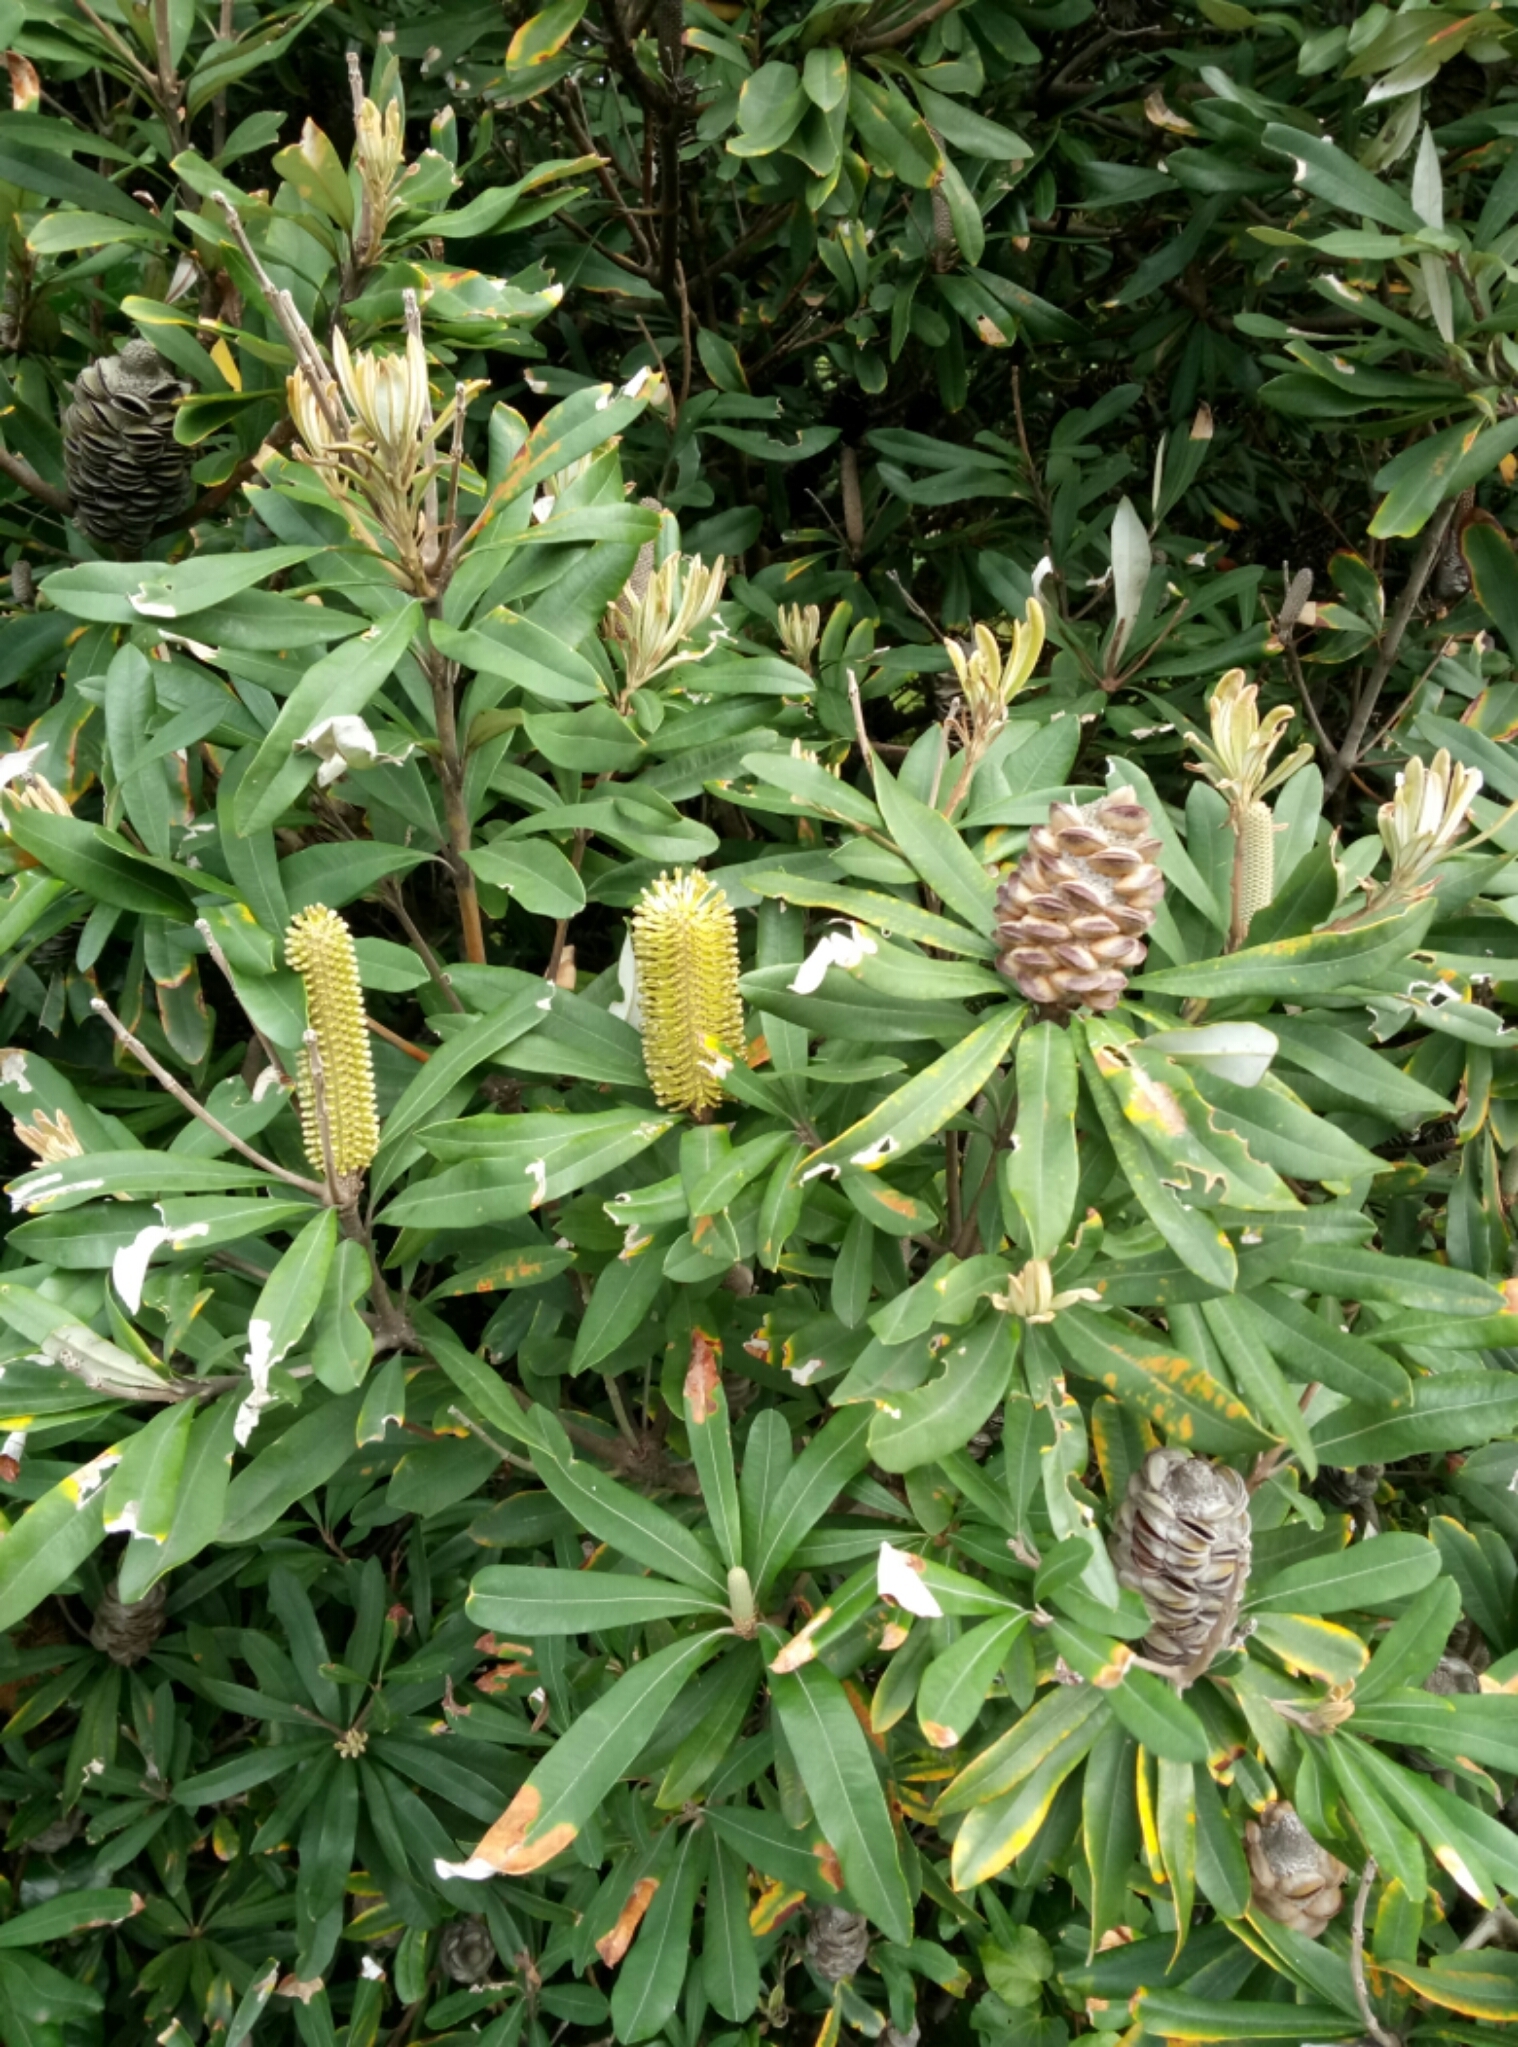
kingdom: Plantae
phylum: Tracheophyta
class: Magnoliopsida
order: Proteales
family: Proteaceae
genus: Banksia
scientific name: Banksia integrifolia
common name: White-honeysuckle
